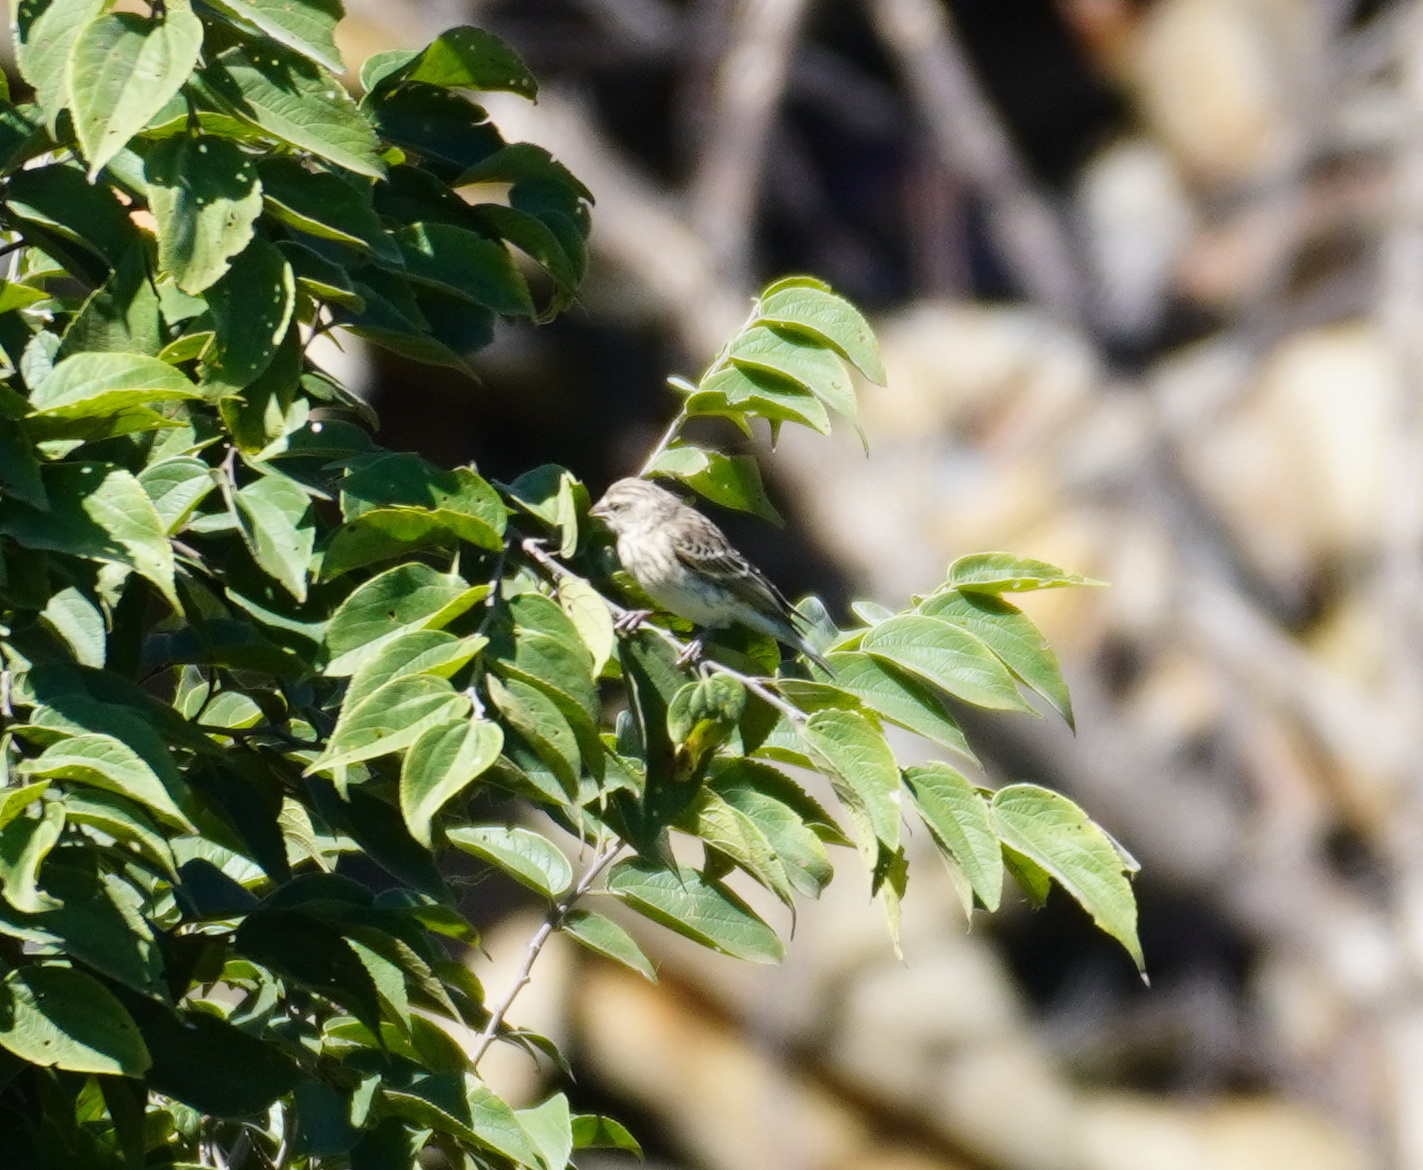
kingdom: Animalia
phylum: Chordata
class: Aves
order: Passeriformes
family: Fringillidae
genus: Crithagra
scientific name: Crithagra atrogularis
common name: Black-throated canary
